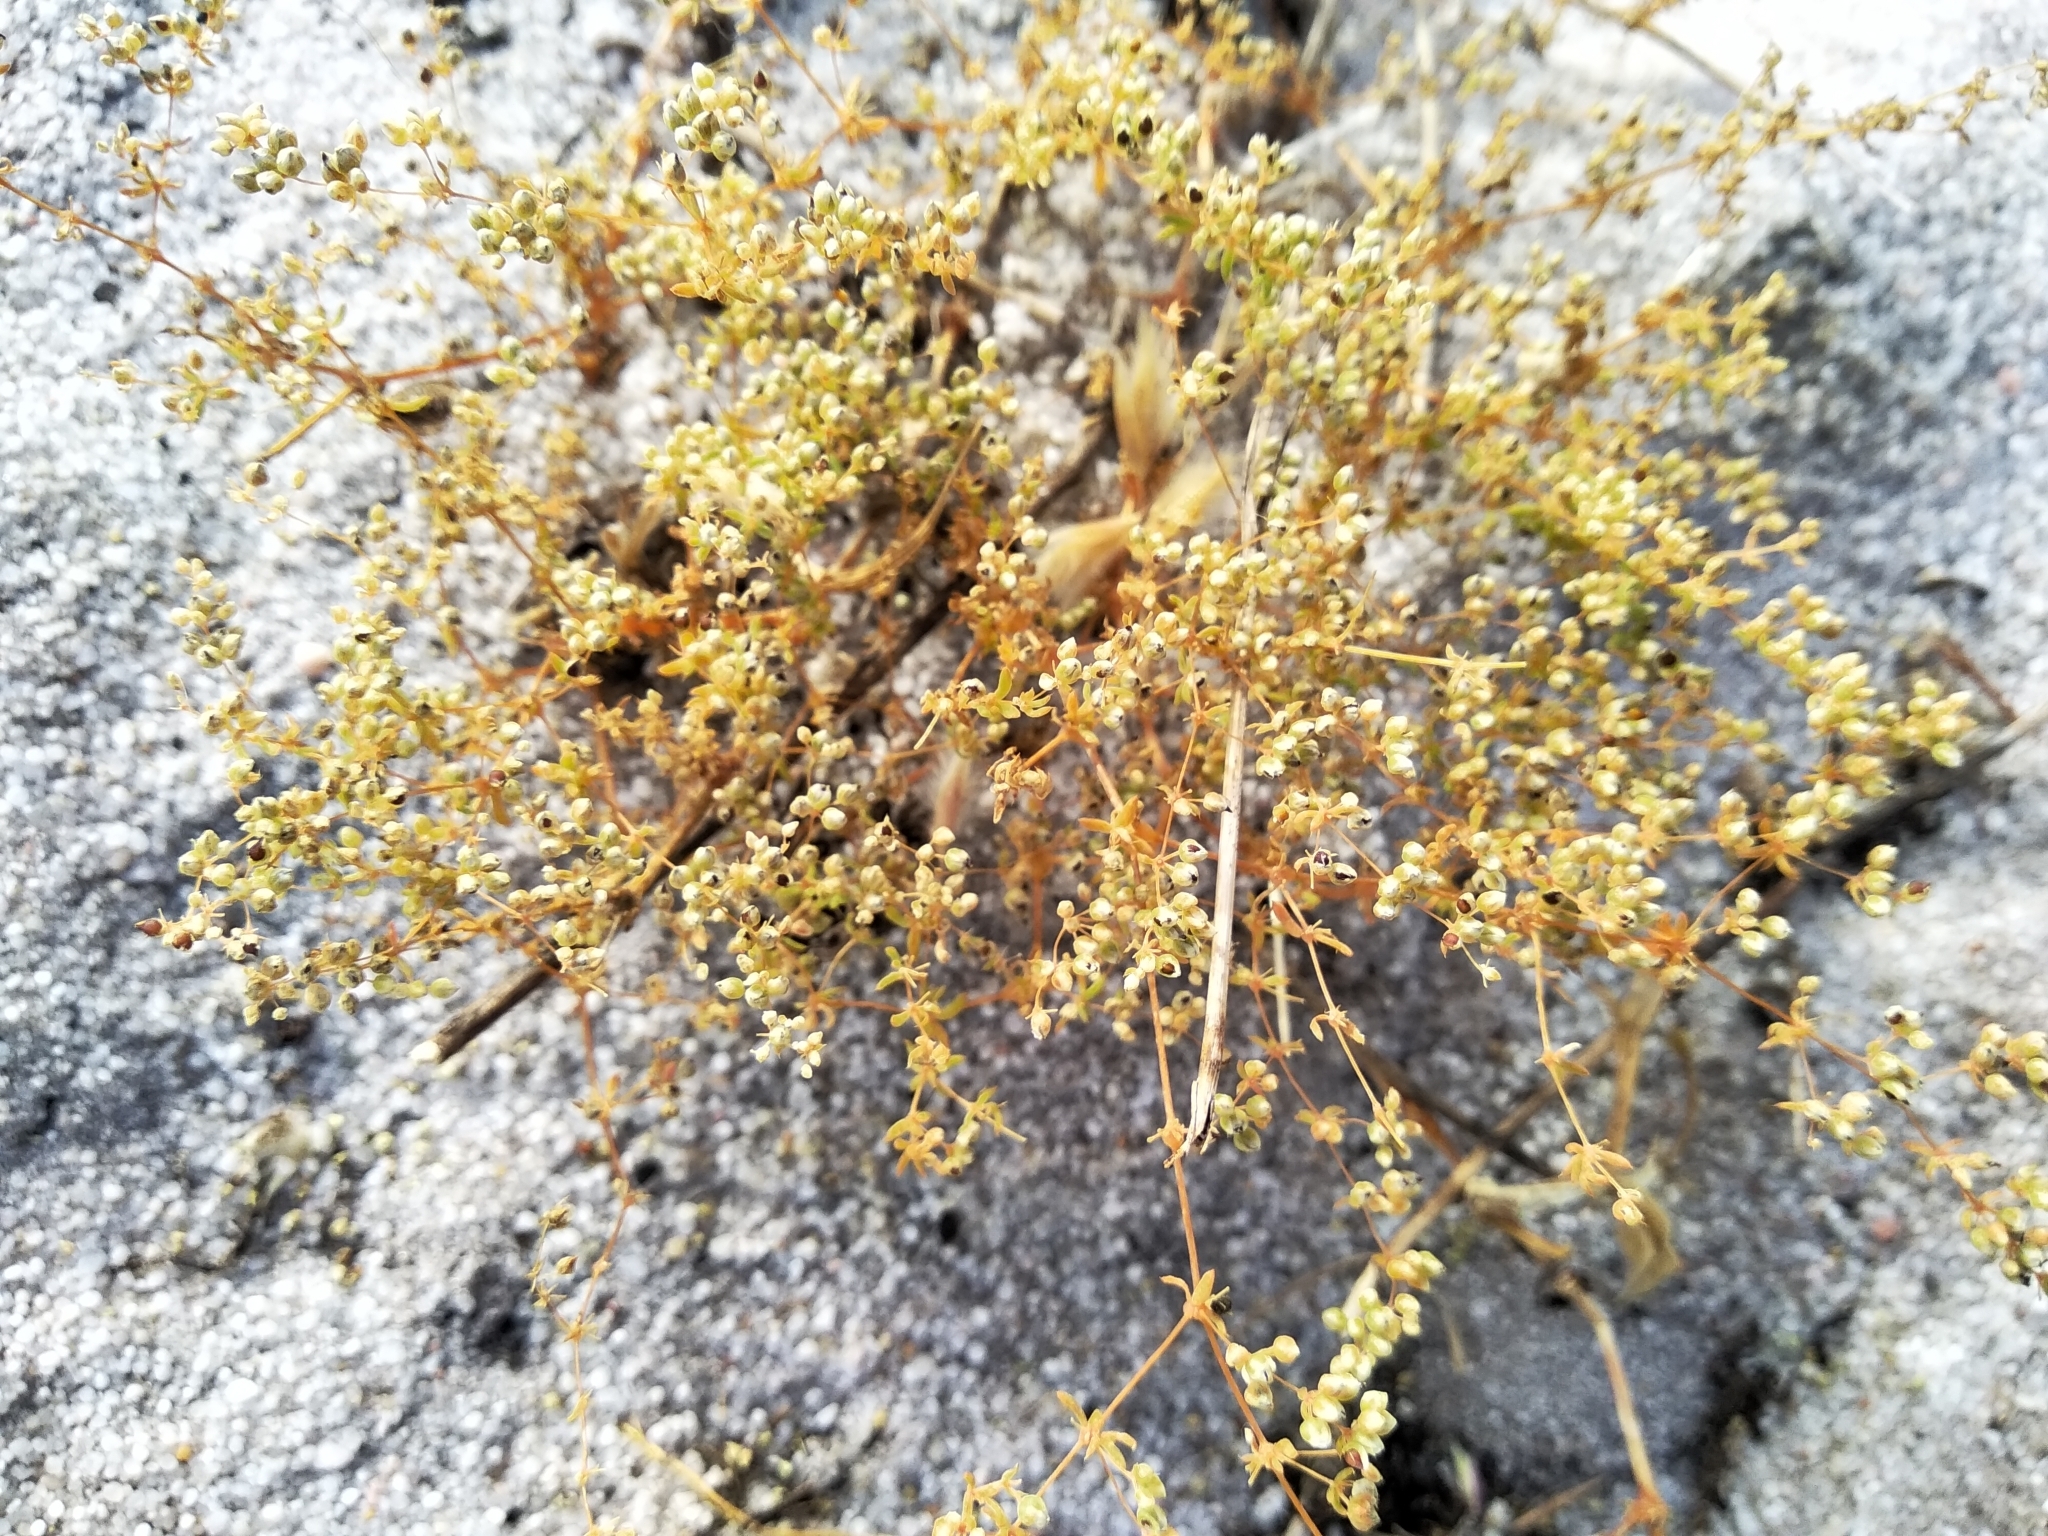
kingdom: Plantae
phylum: Tracheophyta
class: Magnoliopsida
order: Caryophyllales
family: Molluginaceae
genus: Adenogramma
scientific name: Adenogramma glomerata
